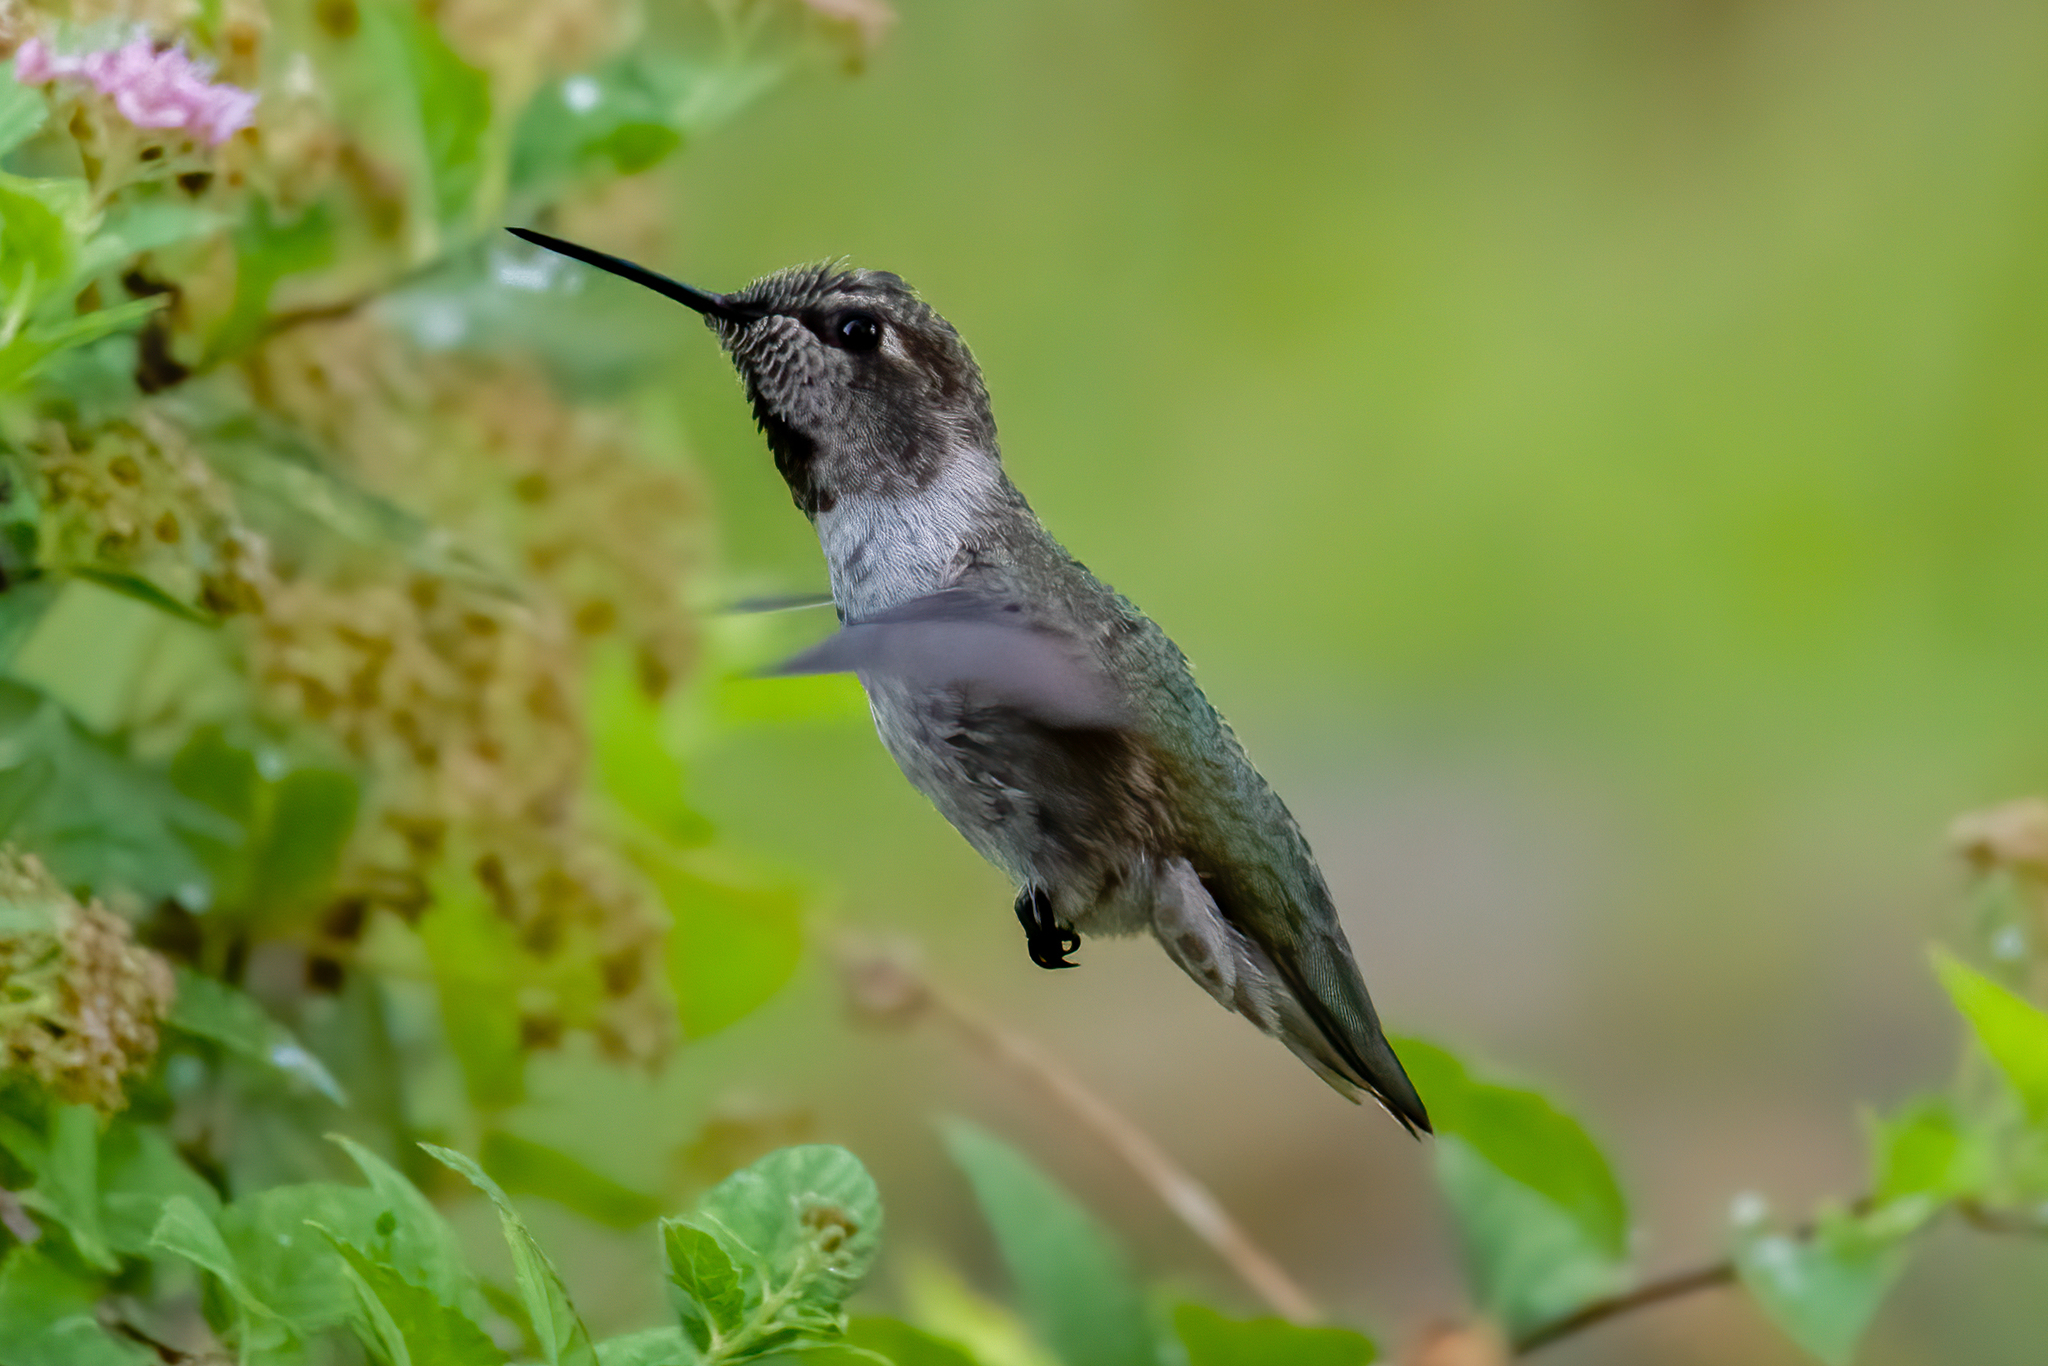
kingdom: Animalia
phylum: Chordata
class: Aves
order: Apodiformes
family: Trochilidae
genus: Calypte
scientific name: Calypte anna
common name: Anna's hummingbird
